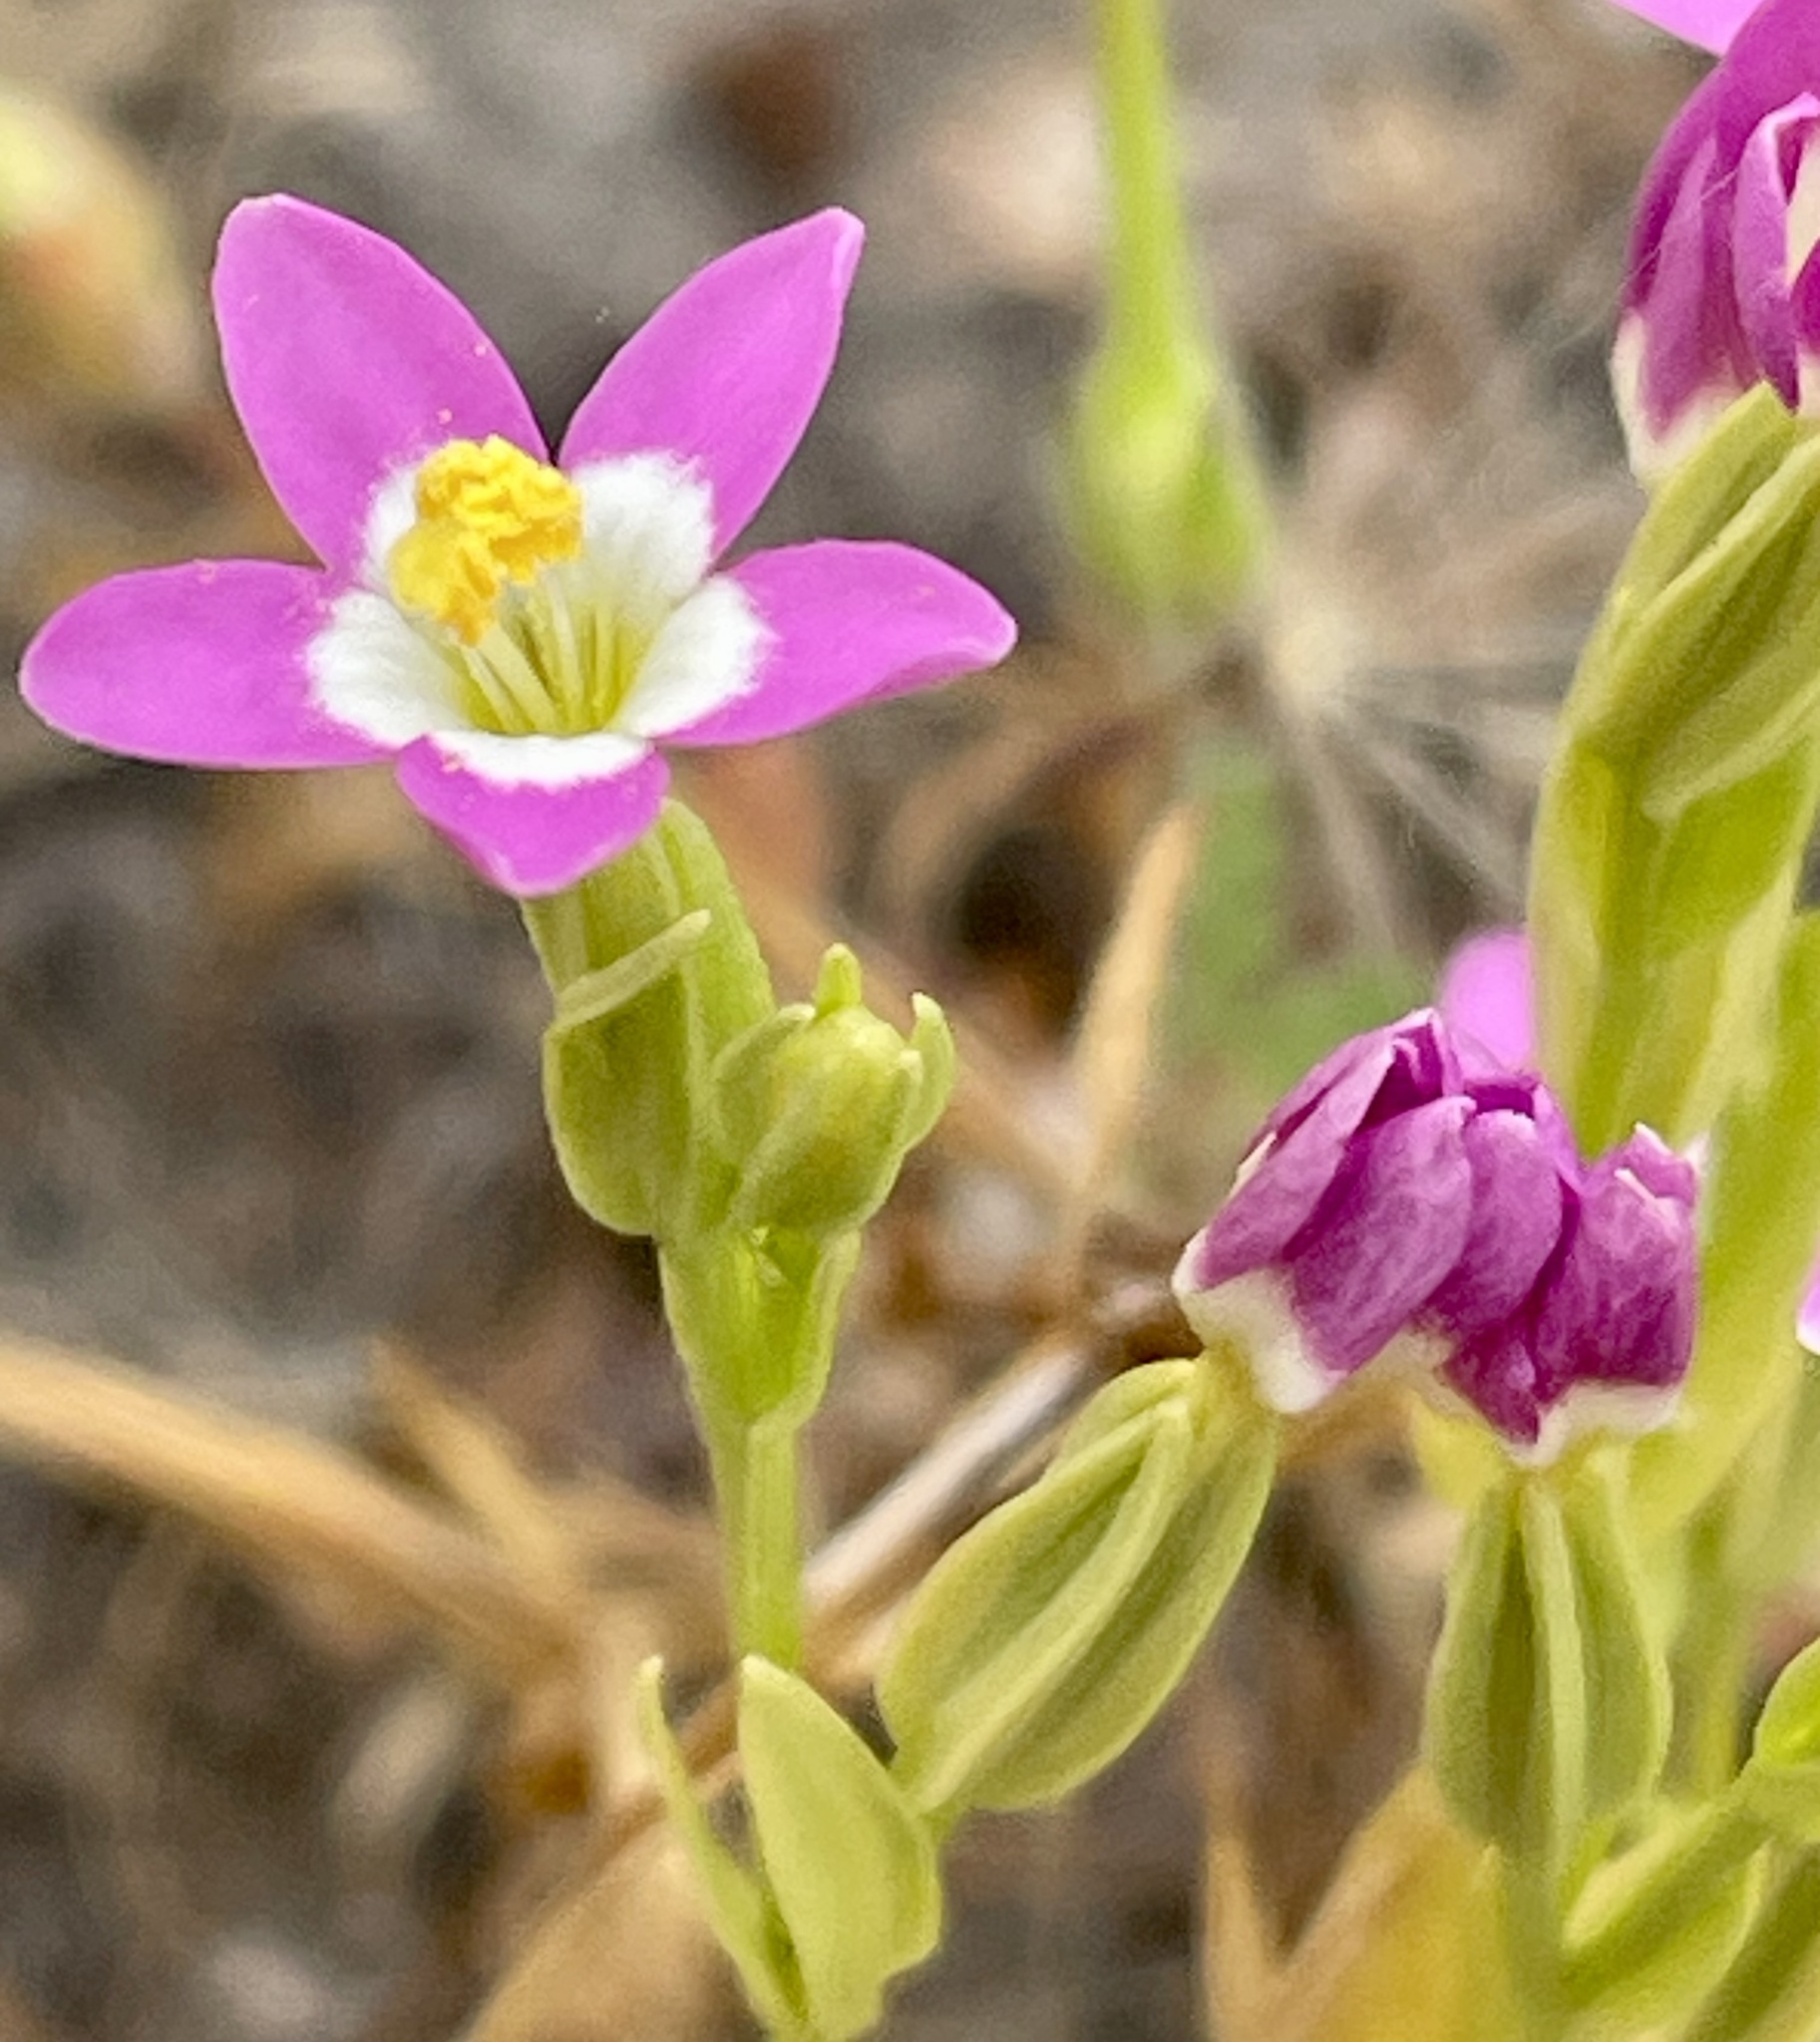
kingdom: Plantae
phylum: Tracheophyta
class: Magnoliopsida
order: Gentianales
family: Gentianaceae
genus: Zeltnera
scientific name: Zeltnera davyi
